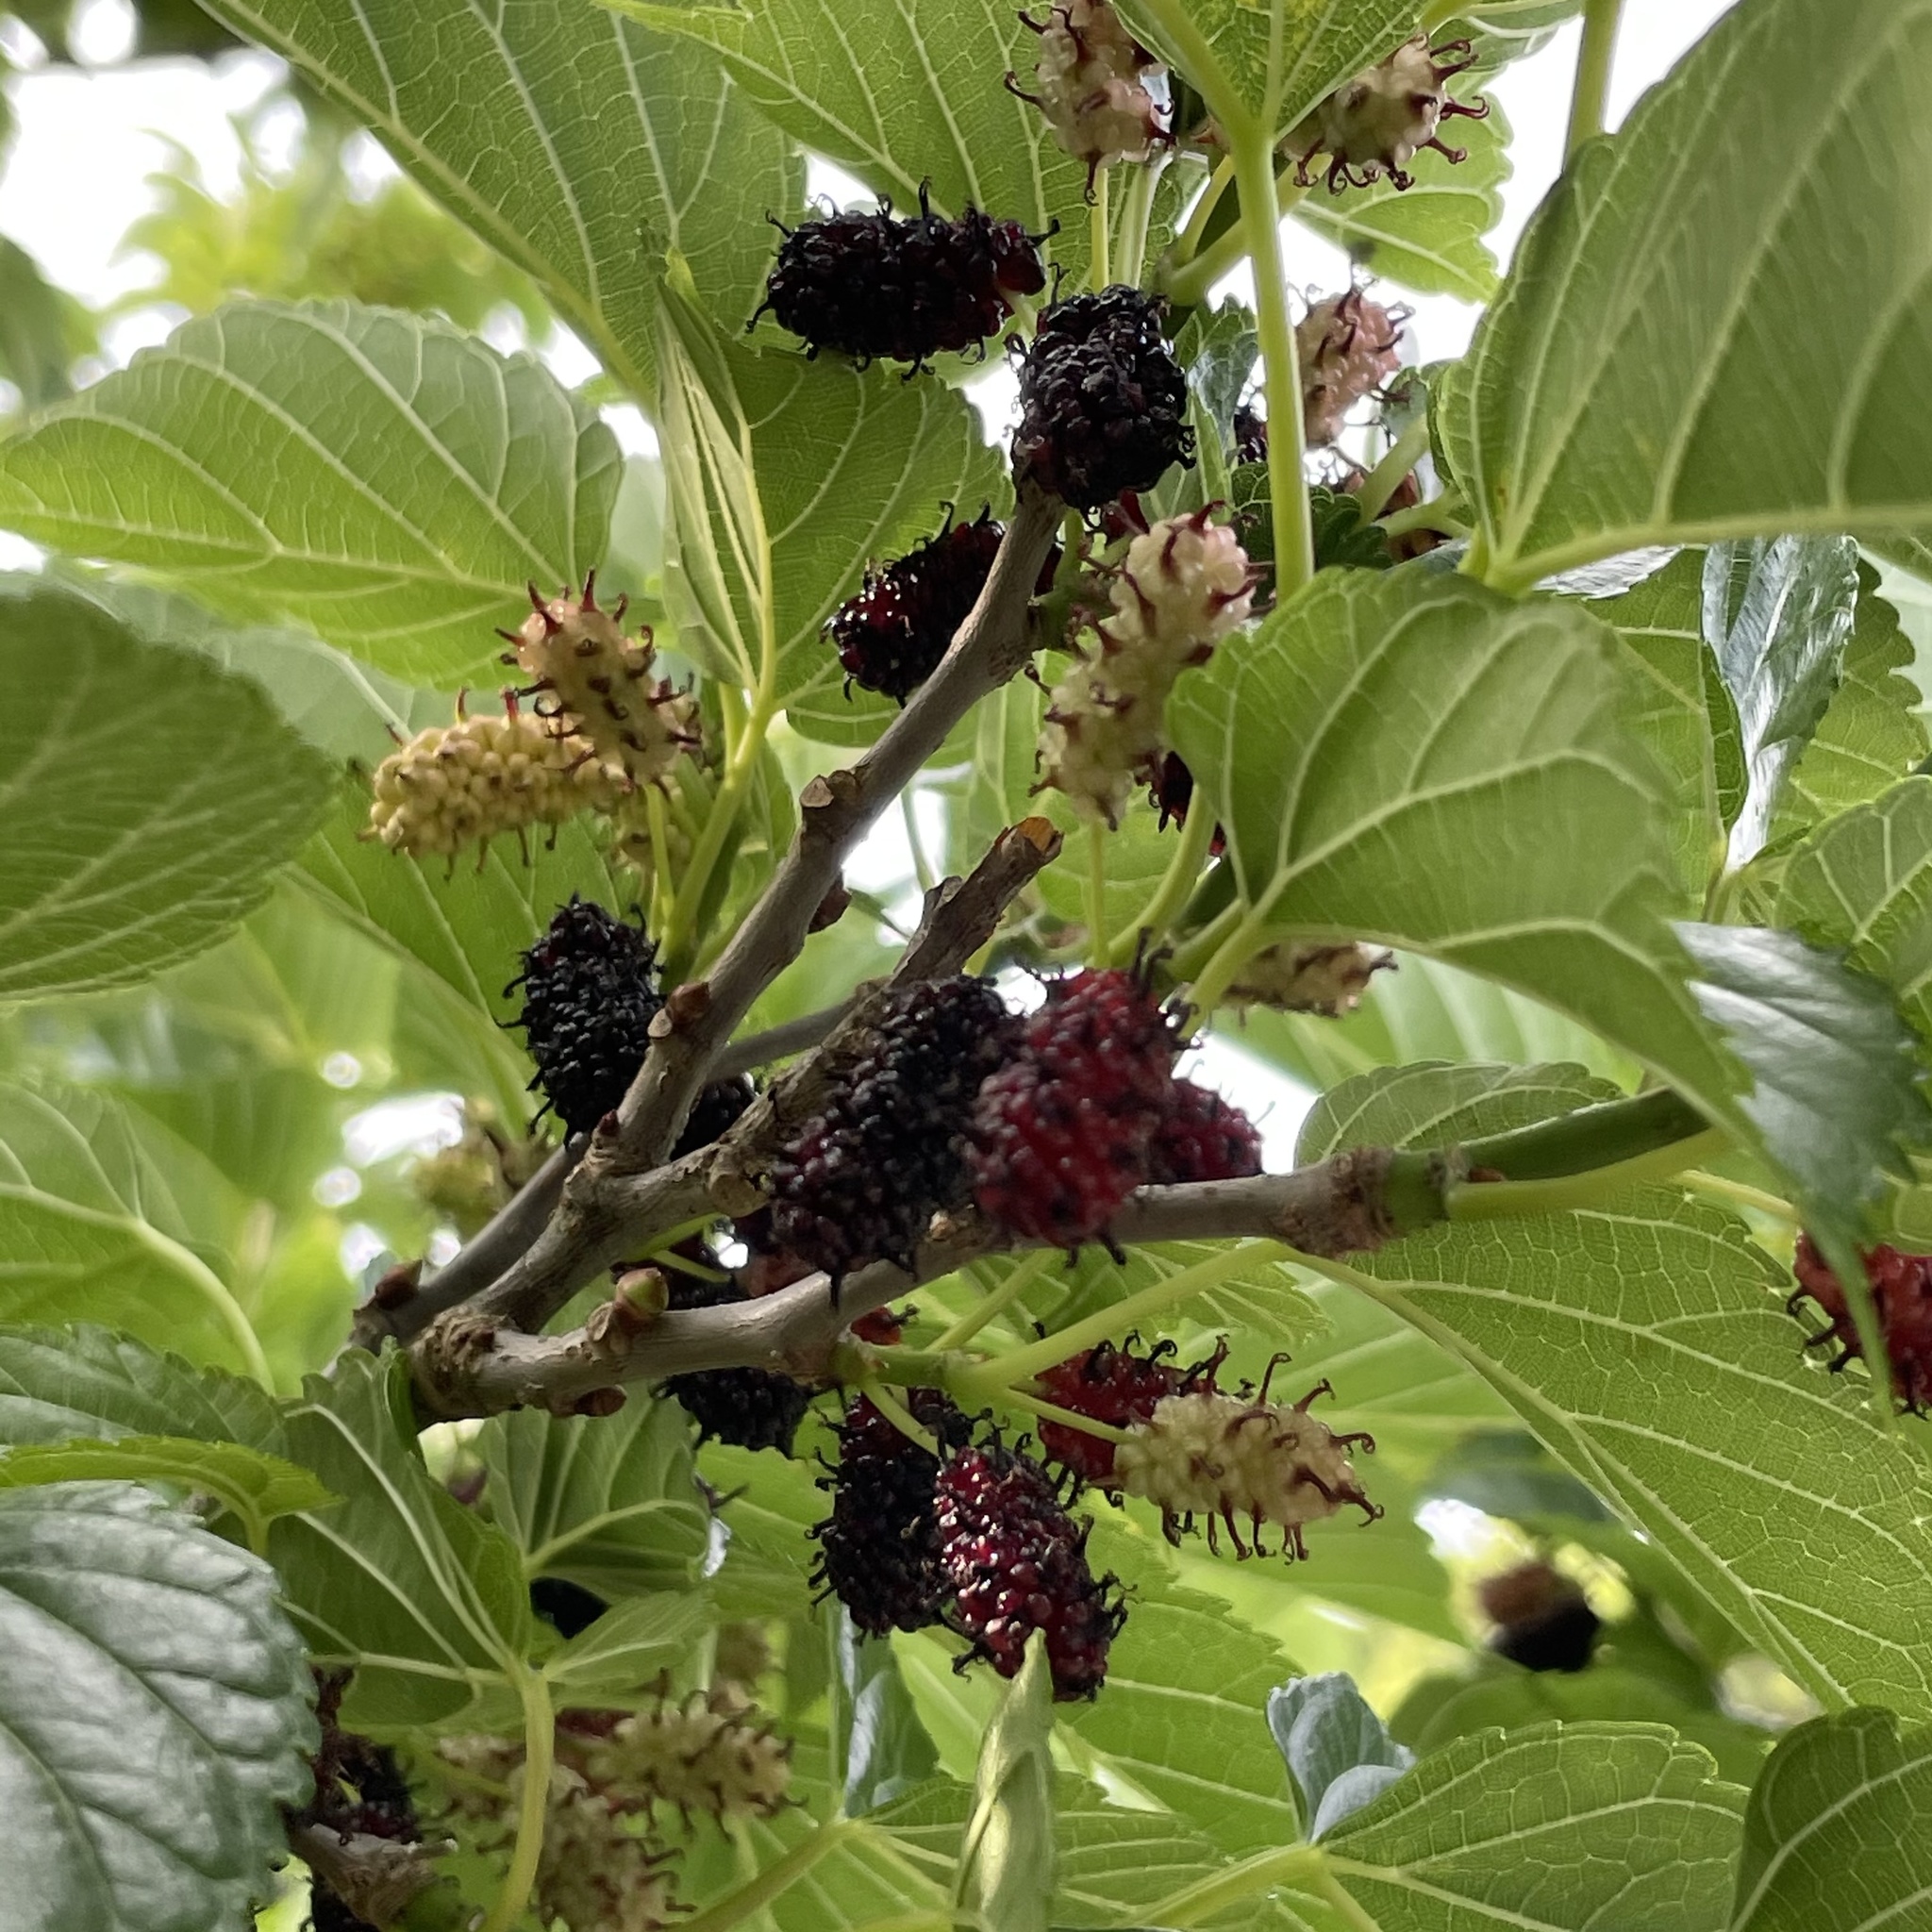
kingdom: Plantae
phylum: Tracheophyta
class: Magnoliopsida
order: Rosales
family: Moraceae
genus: Morus
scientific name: Morus indica
